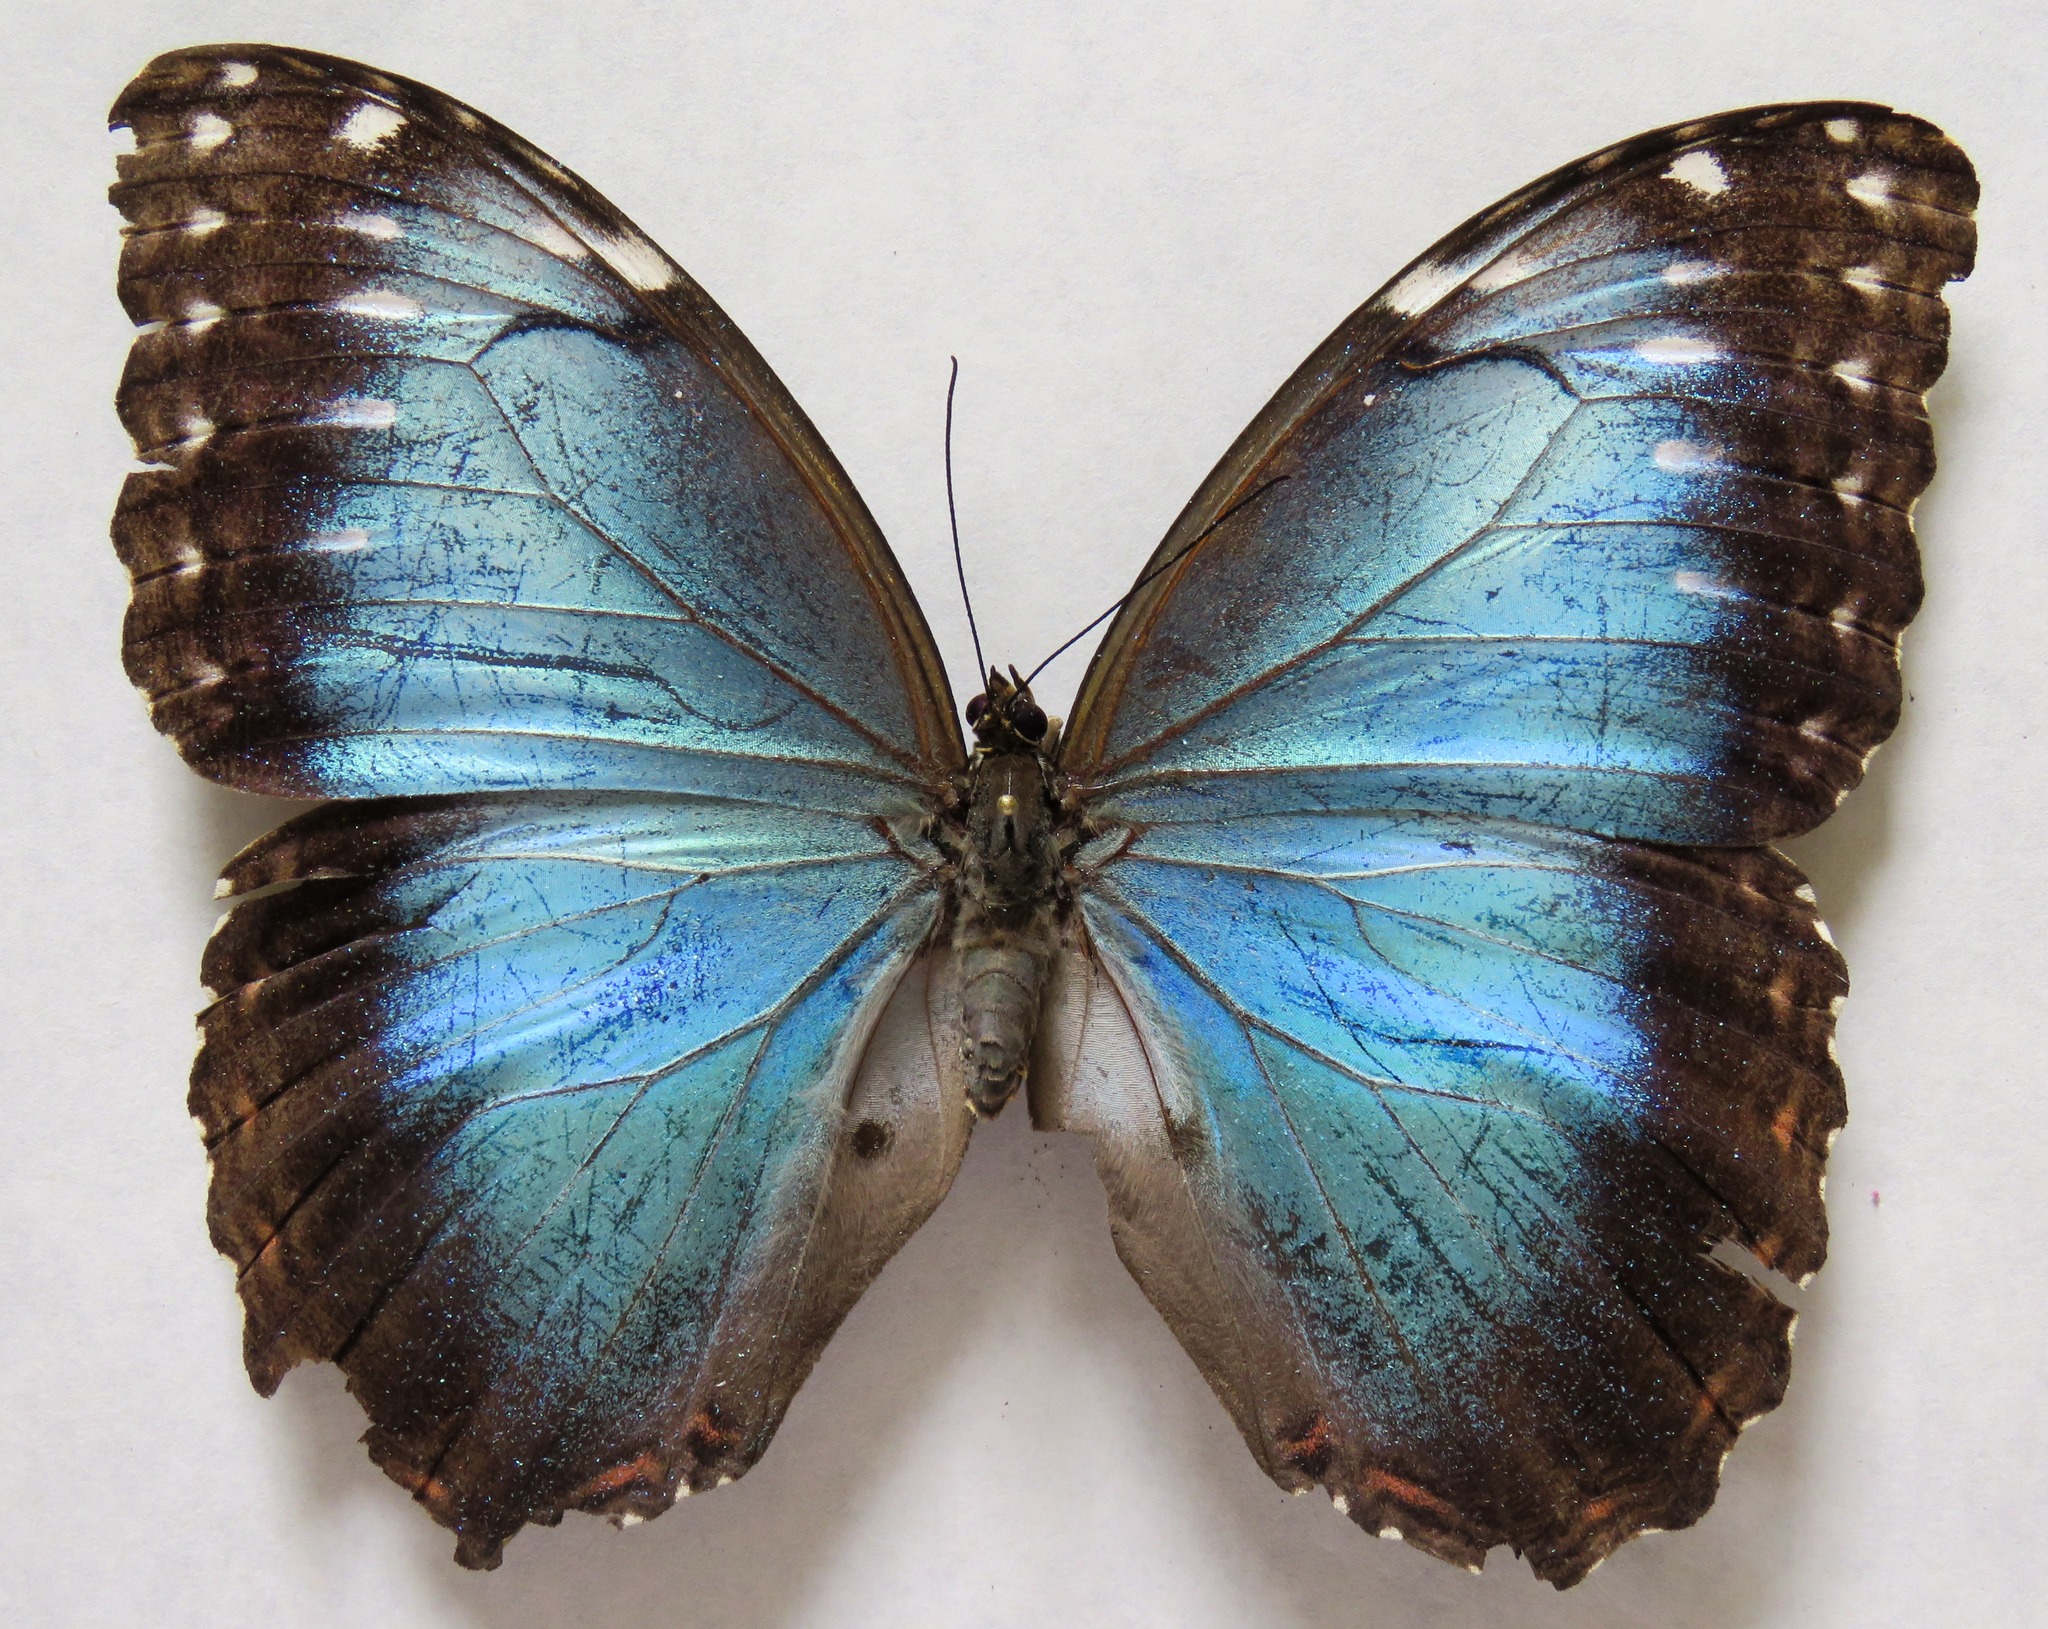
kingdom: Animalia
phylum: Arthropoda
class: Insecta
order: Lepidoptera
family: Nymphalidae
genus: Morpho
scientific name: Morpho helenor
